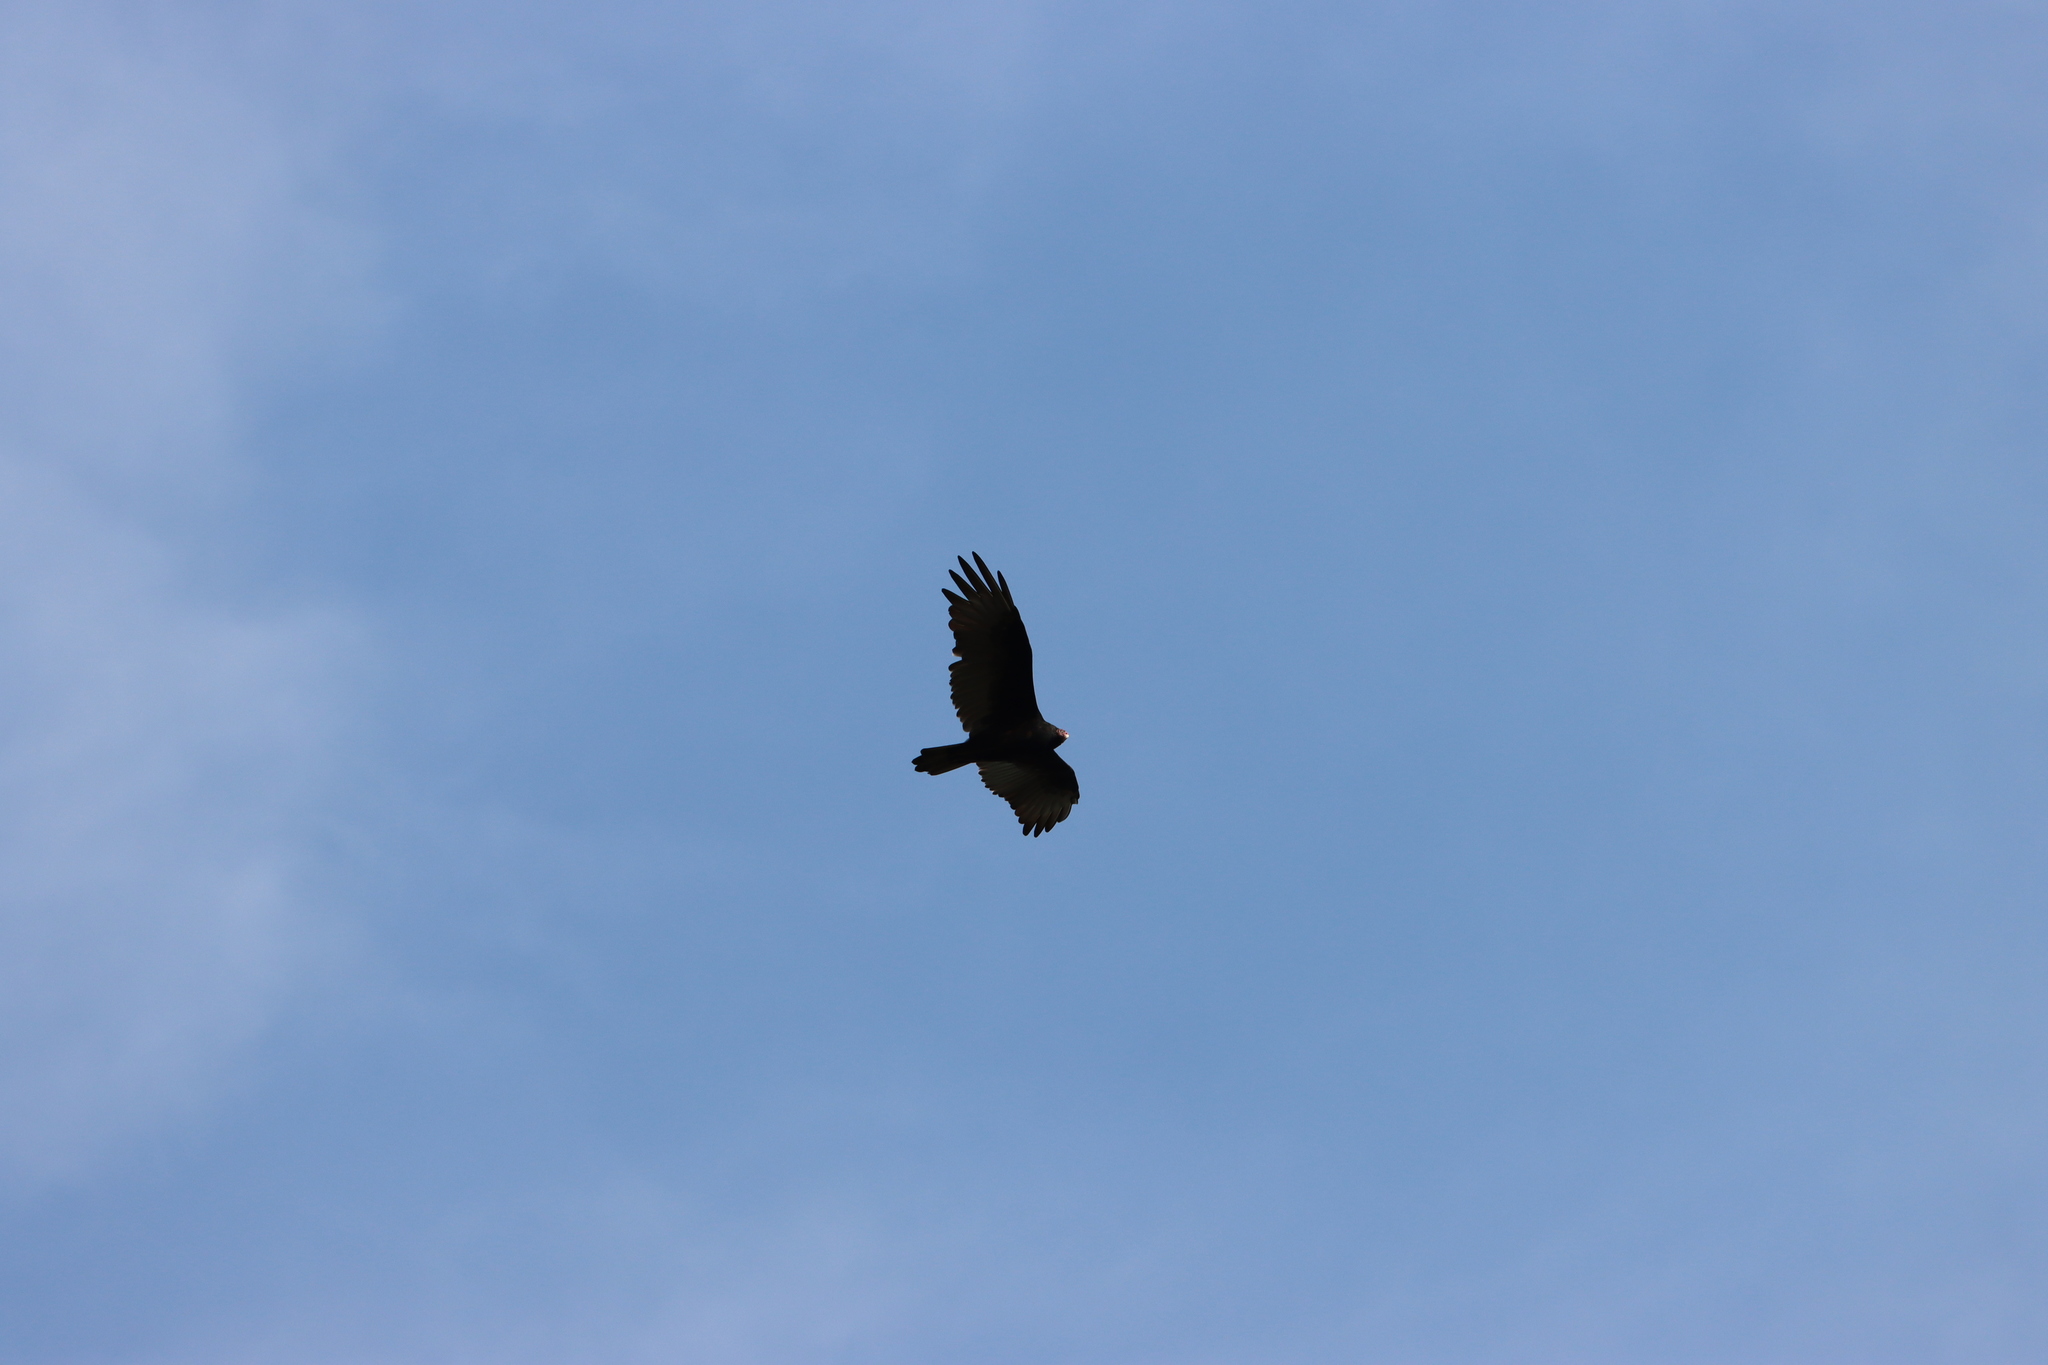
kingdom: Animalia
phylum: Chordata
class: Aves
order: Accipitriformes
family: Cathartidae
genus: Cathartes
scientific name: Cathartes aura
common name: Turkey vulture
